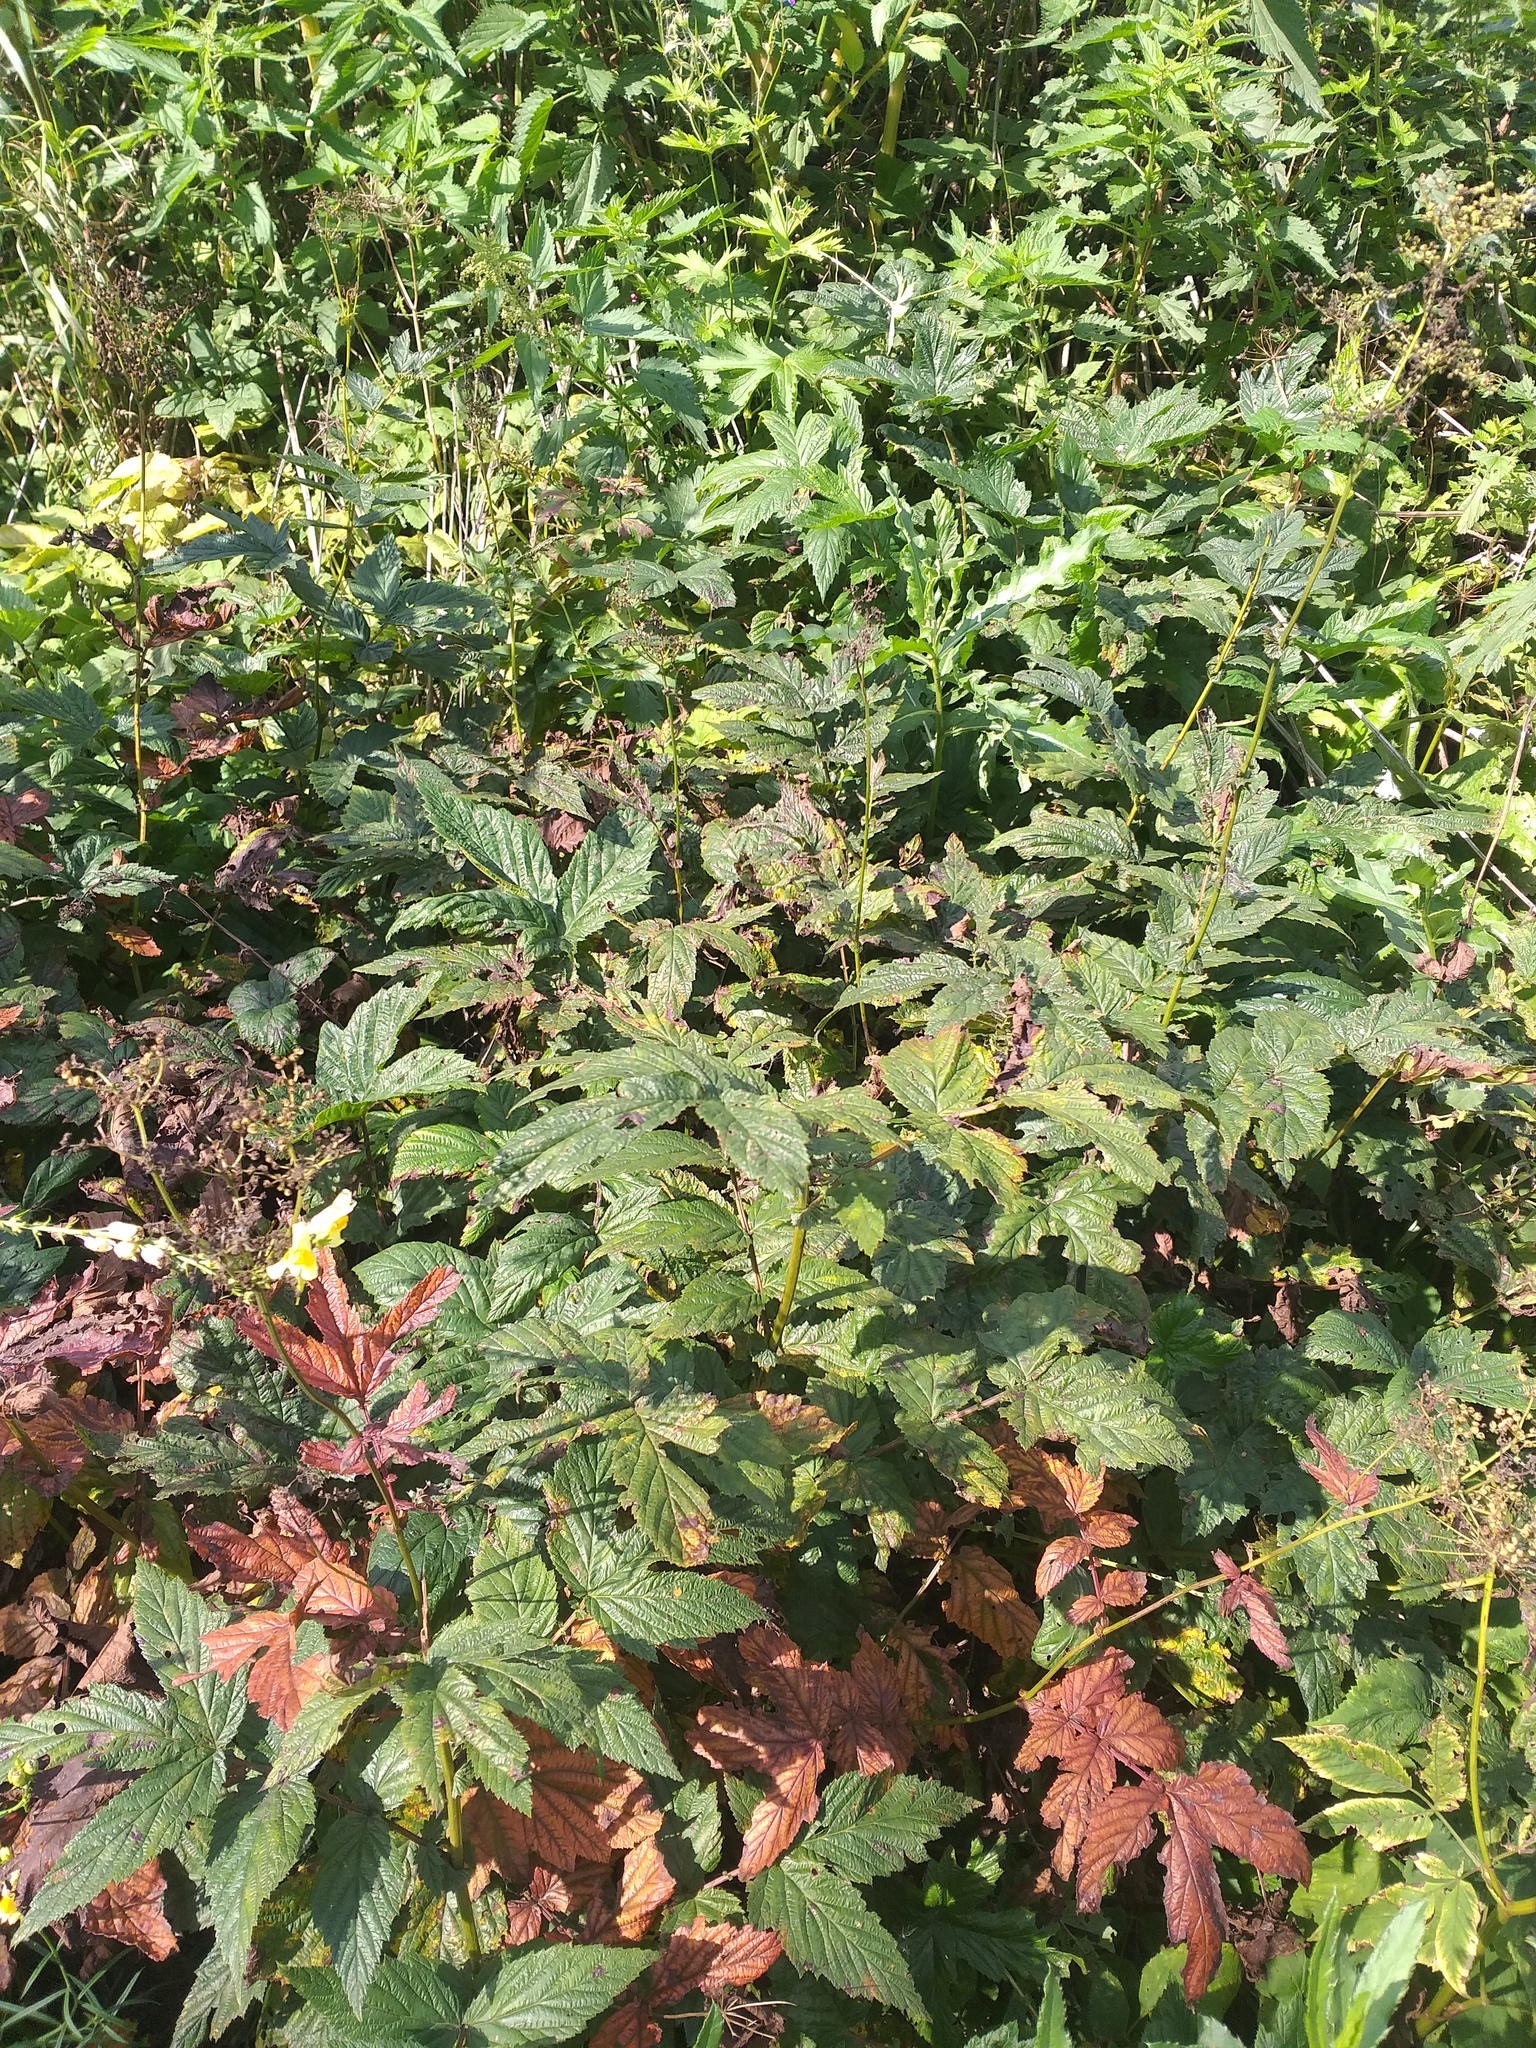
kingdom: Plantae
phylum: Tracheophyta
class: Magnoliopsida
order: Rosales
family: Rosaceae
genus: Filipendula
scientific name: Filipendula ulmaria
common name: Meadowsweet
